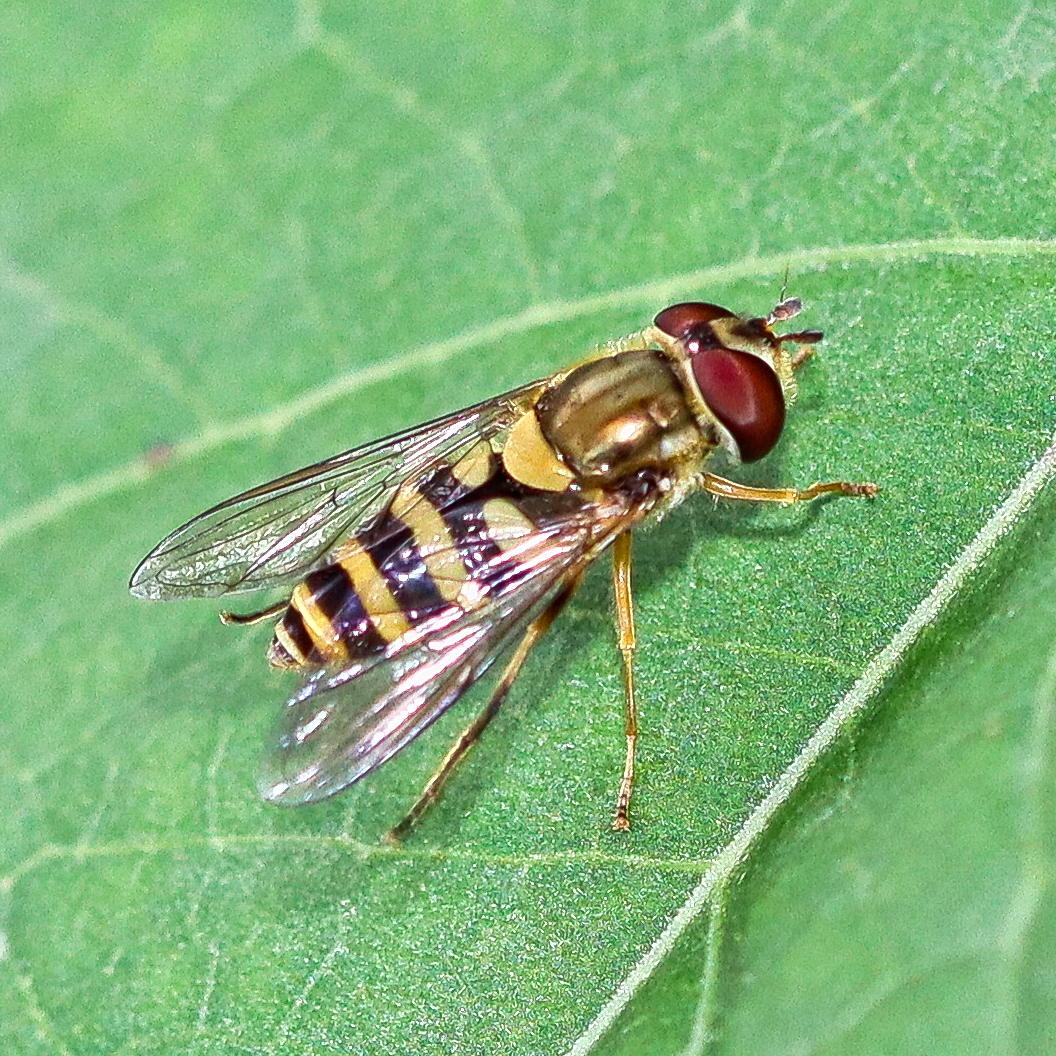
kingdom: Animalia
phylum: Arthropoda
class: Insecta
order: Diptera
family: Syrphidae
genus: Syrphus
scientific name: Syrphus rectus
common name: Yellow-legged flower fly
